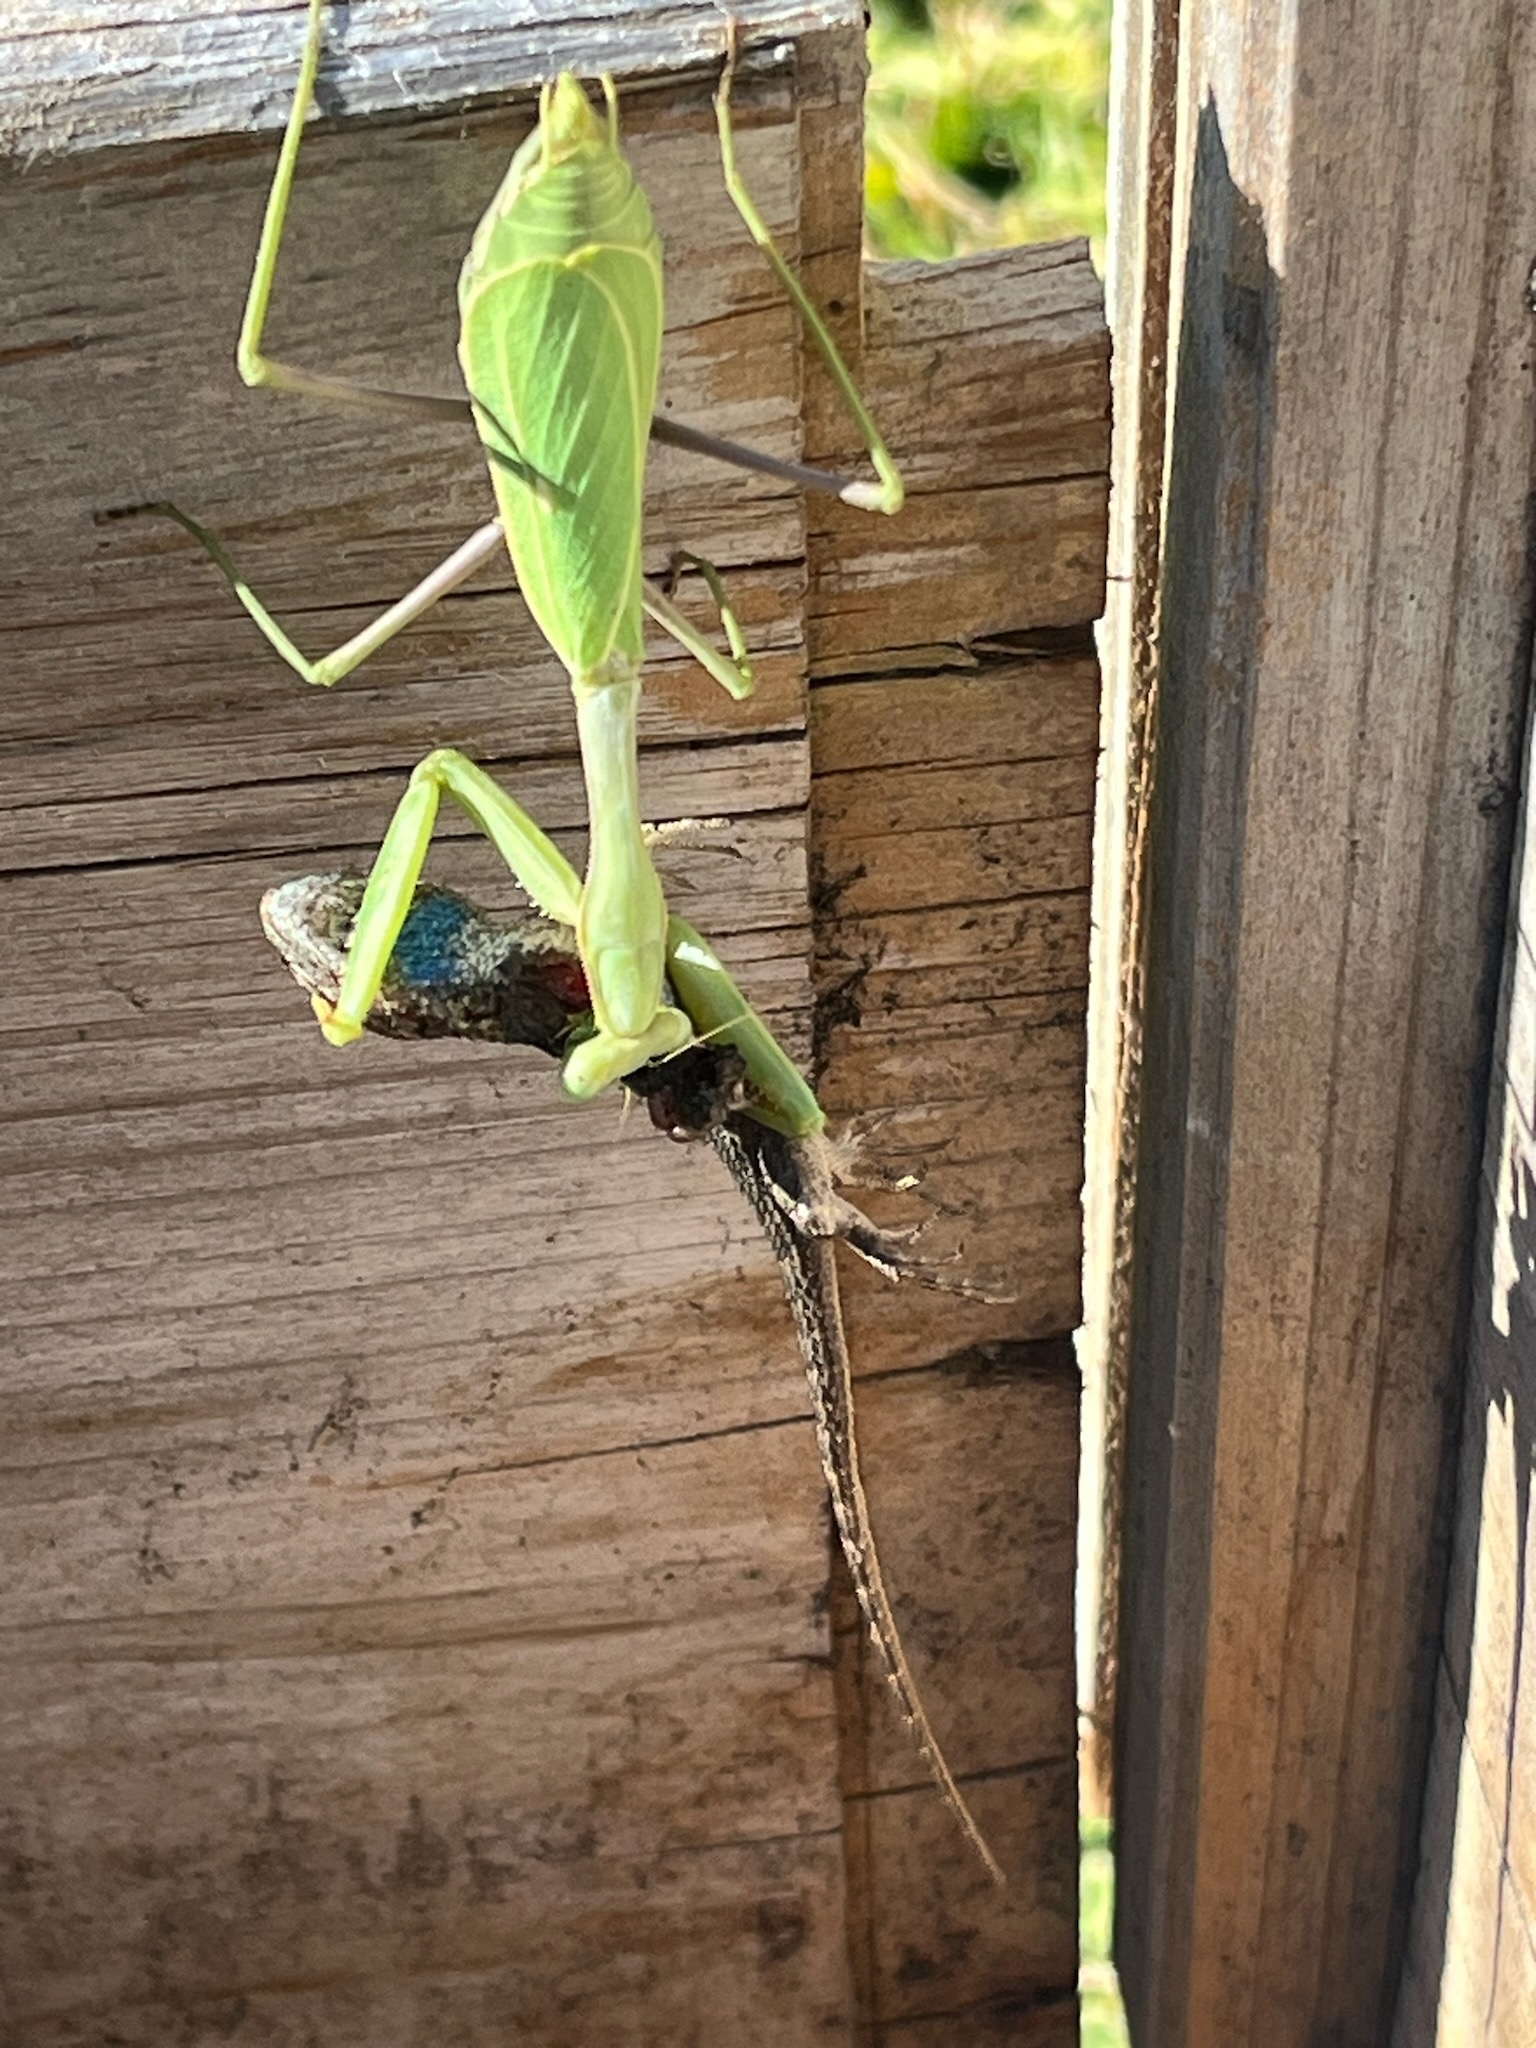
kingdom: Animalia
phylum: Arthropoda
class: Insecta
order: Mantodea
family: Mantidae
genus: Stagmomantis
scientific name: Stagmomantis limbata
